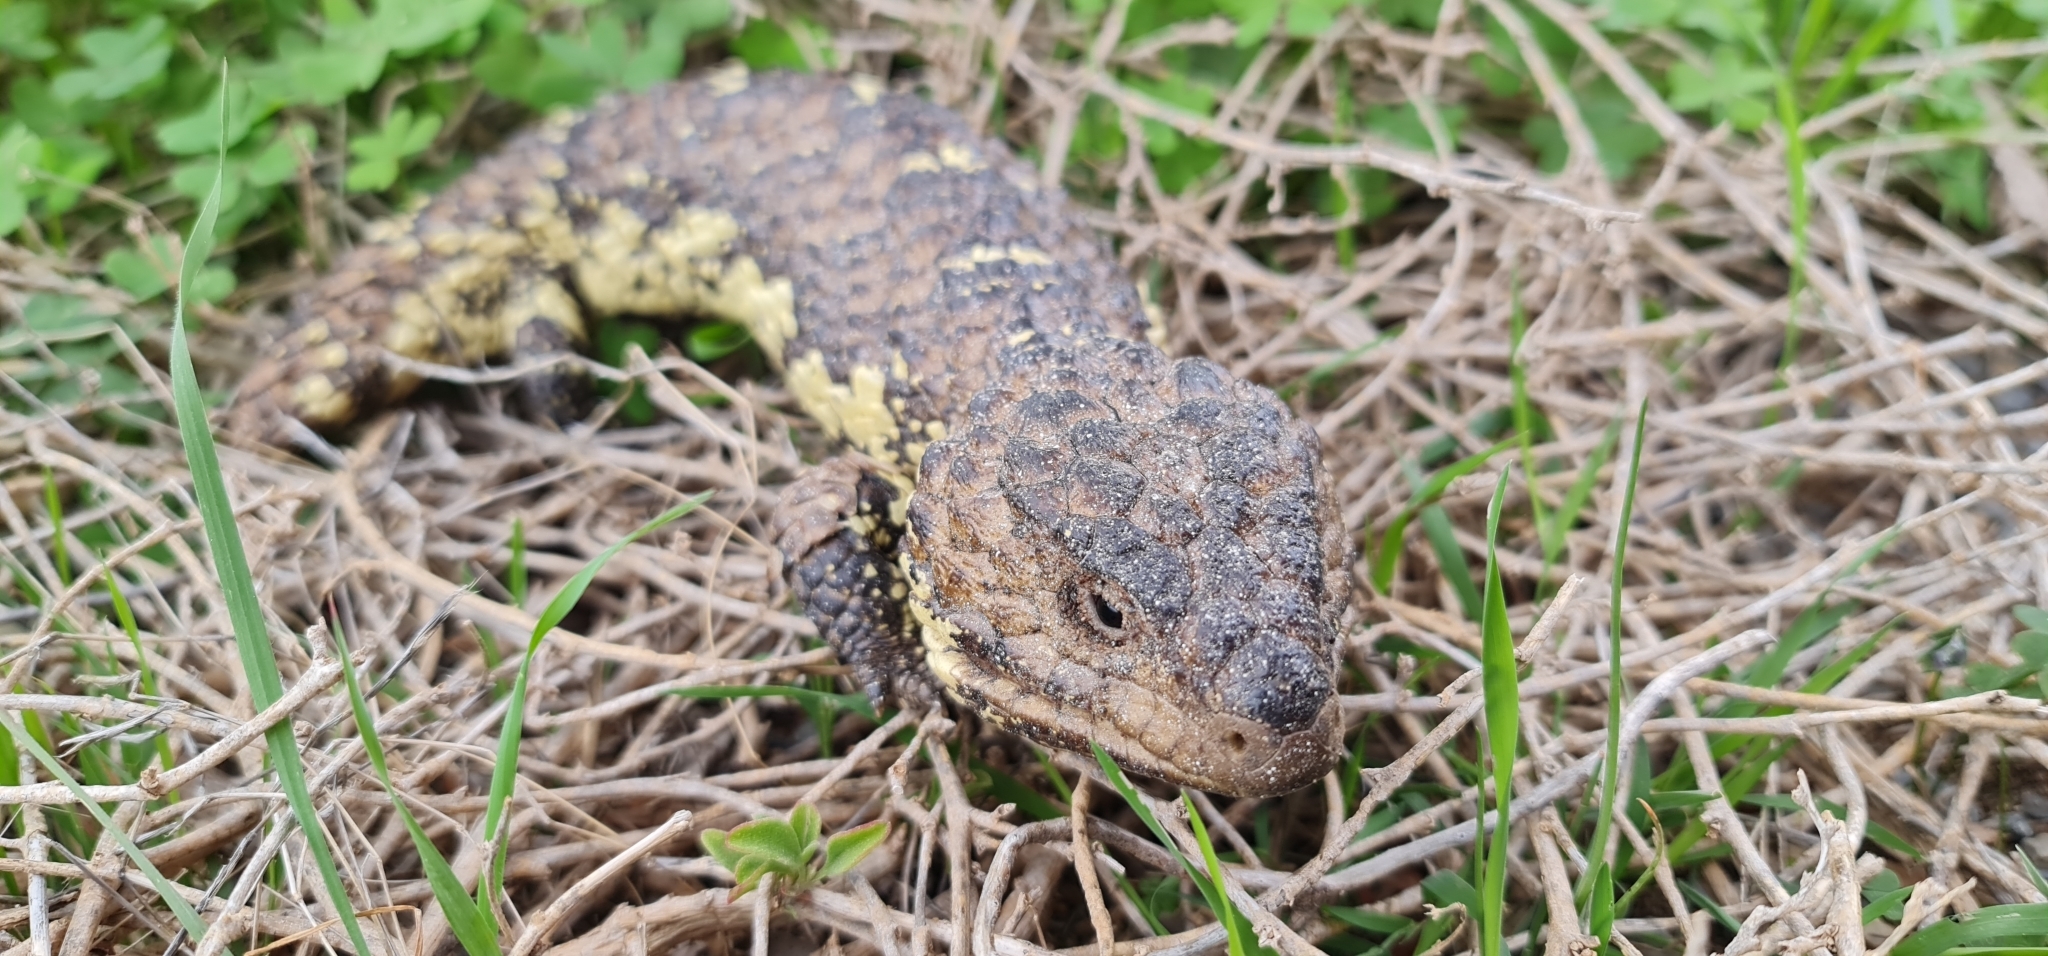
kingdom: Animalia
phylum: Chordata
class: Squamata
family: Scincidae
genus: Tiliqua
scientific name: Tiliqua rugosa
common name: Pinecone lizard
